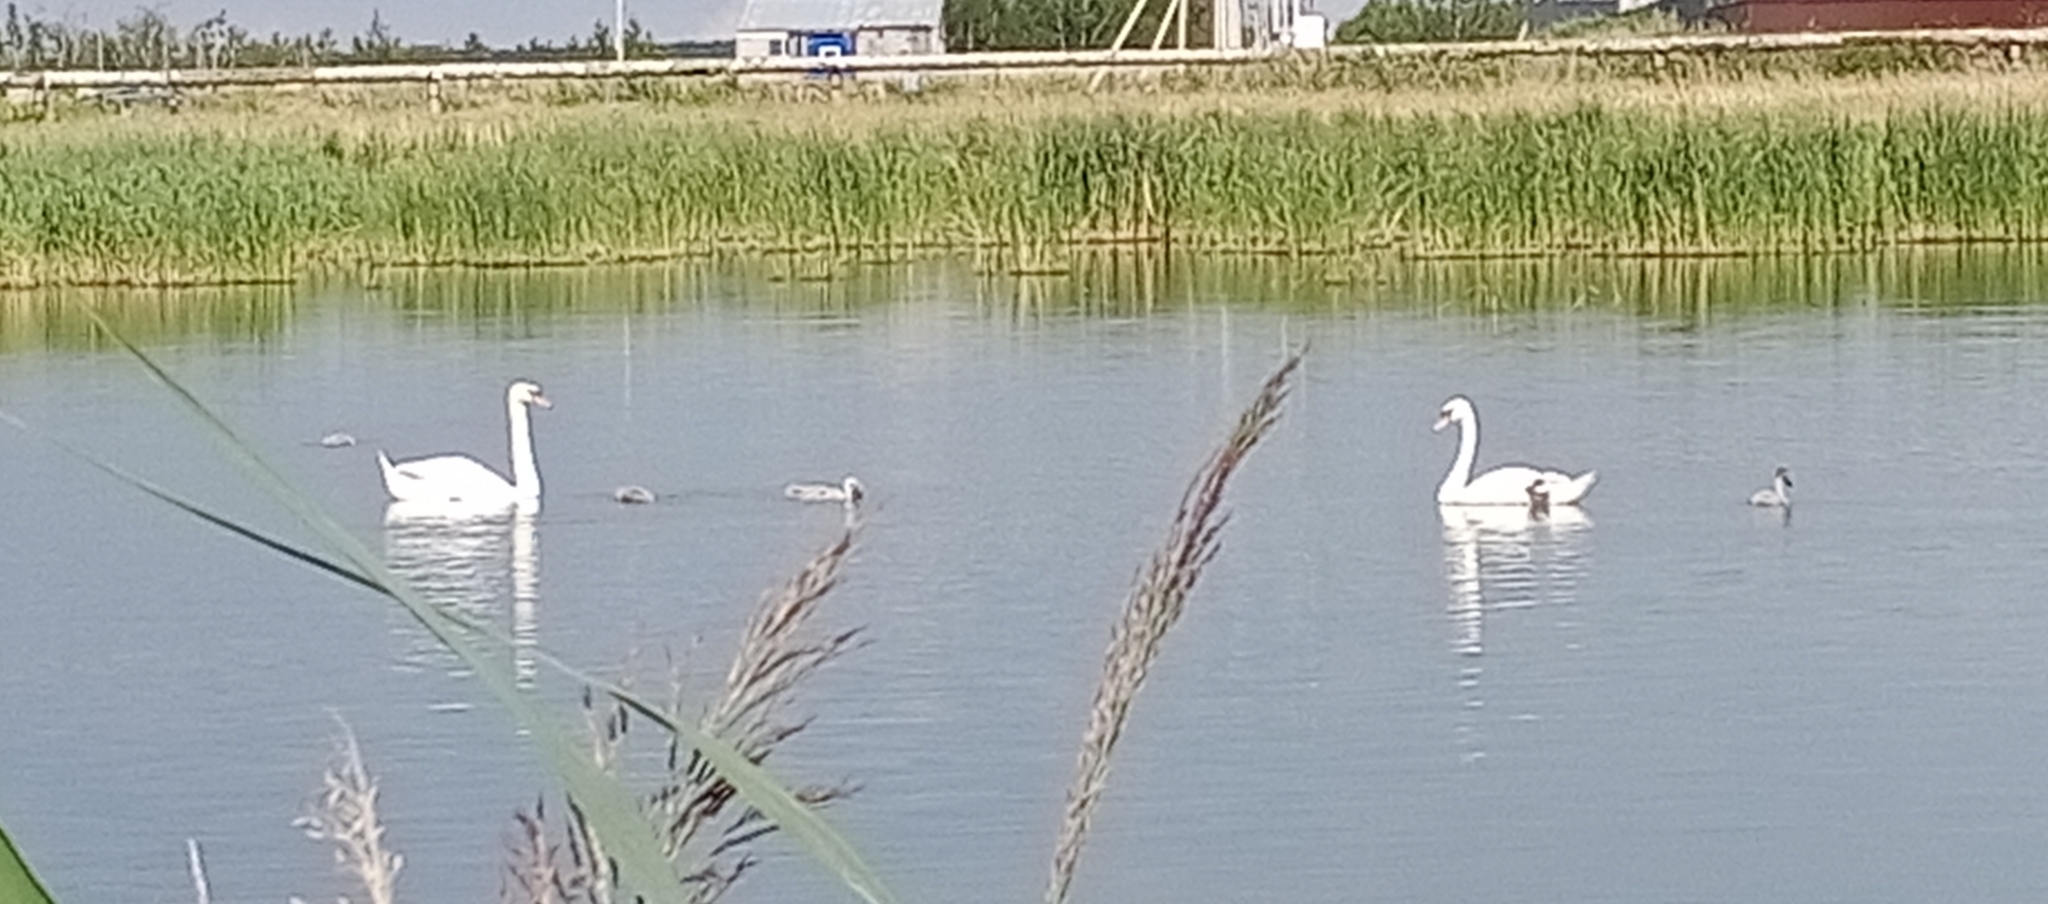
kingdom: Animalia
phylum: Chordata
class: Aves
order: Anseriformes
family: Anatidae
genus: Cygnus
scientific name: Cygnus olor
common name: Mute swan
